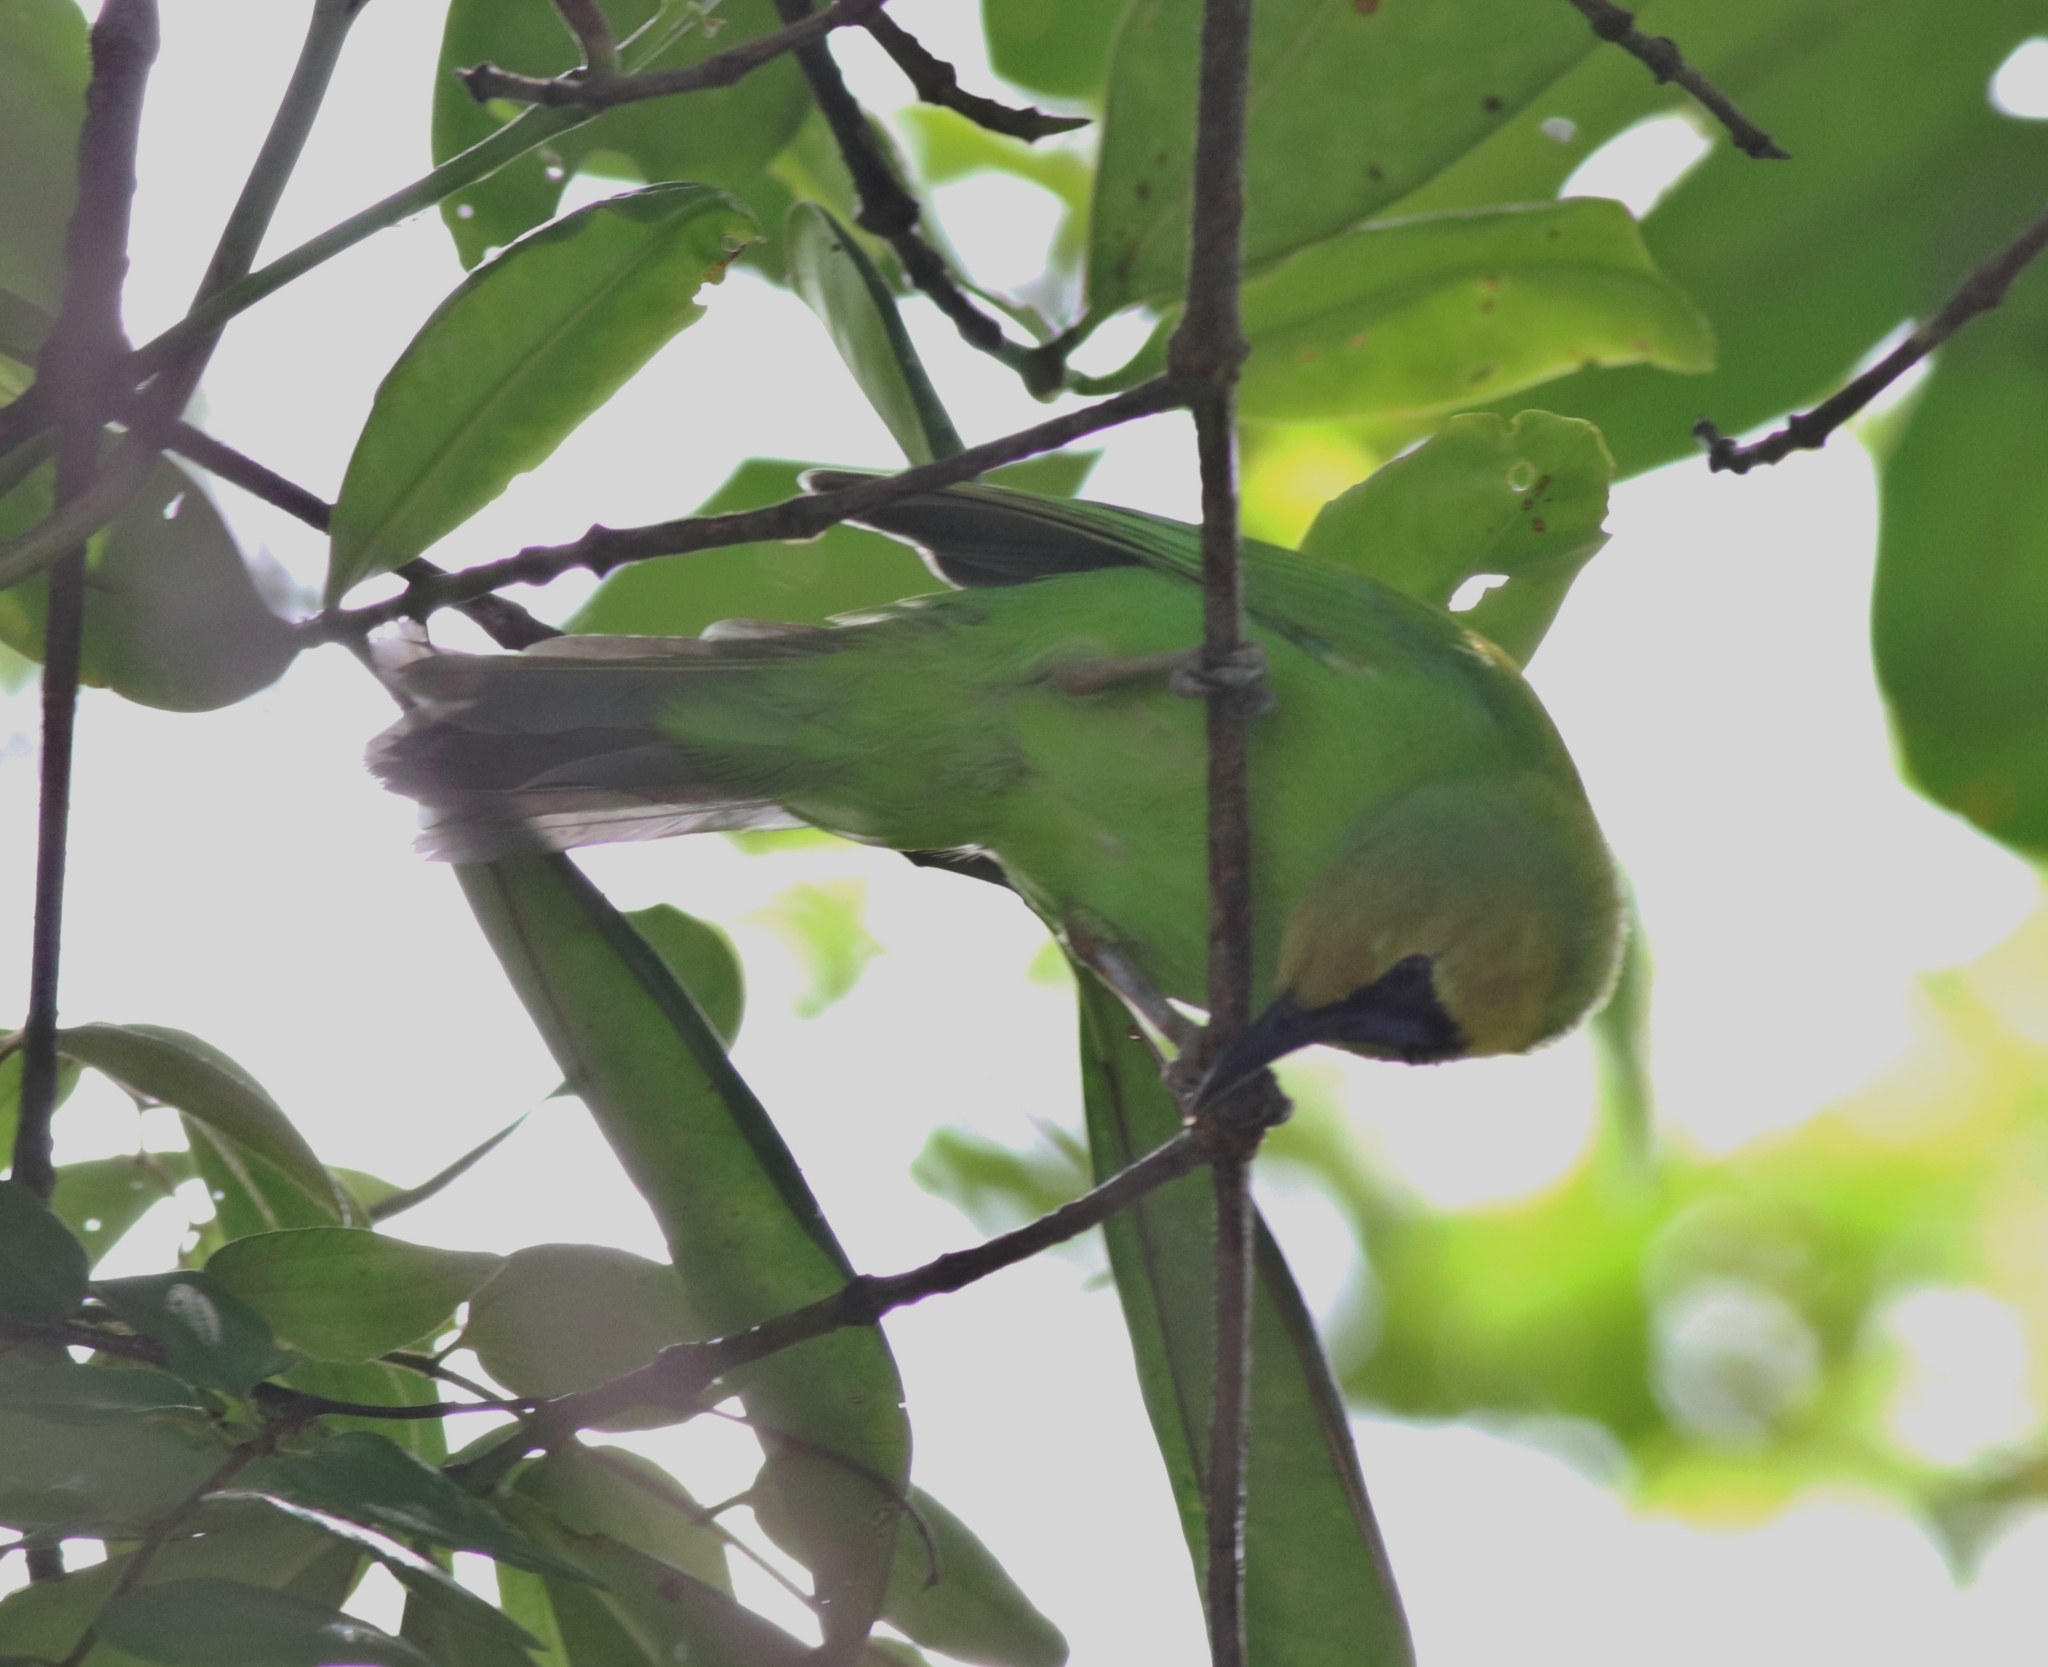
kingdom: Animalia
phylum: Chordata
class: Aves
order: Passeriformes
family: Chloropseidae
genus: Chloropsis
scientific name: Chloropsis jerdoni
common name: Jerdon's leafbird
